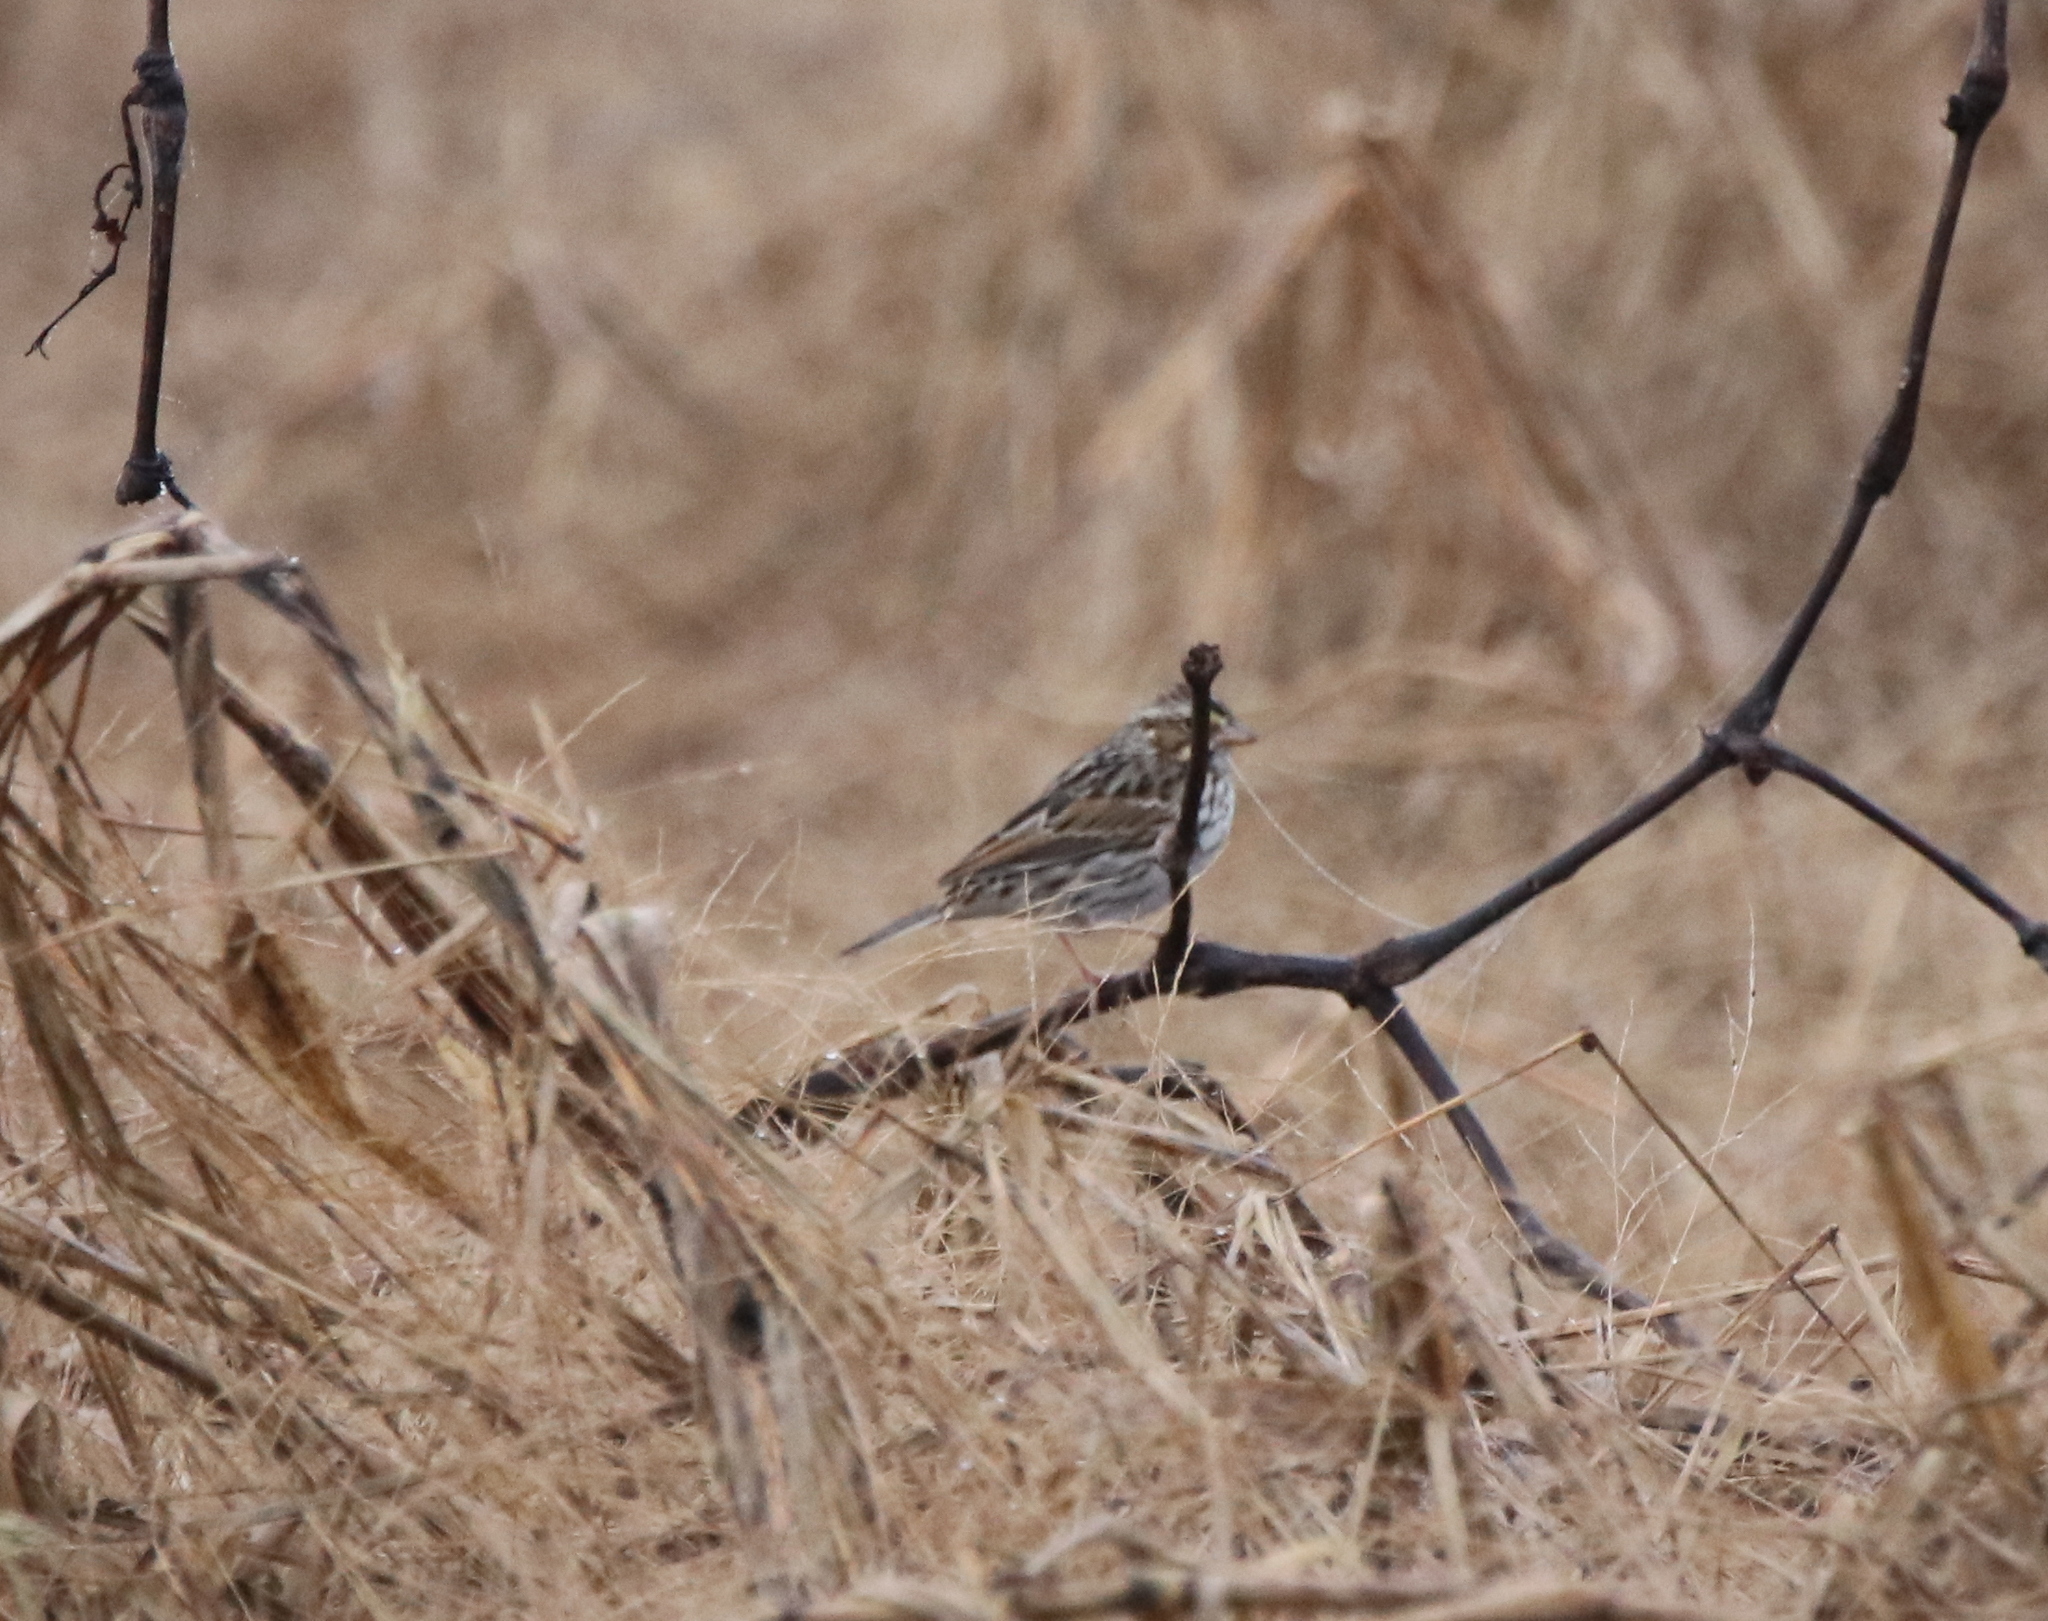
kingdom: Animalia
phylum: Chordata
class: Aves
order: Passeriformes
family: Passerellidae
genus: Passerculus
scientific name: Passerculus sandwichensis
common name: Savannah sparrow
